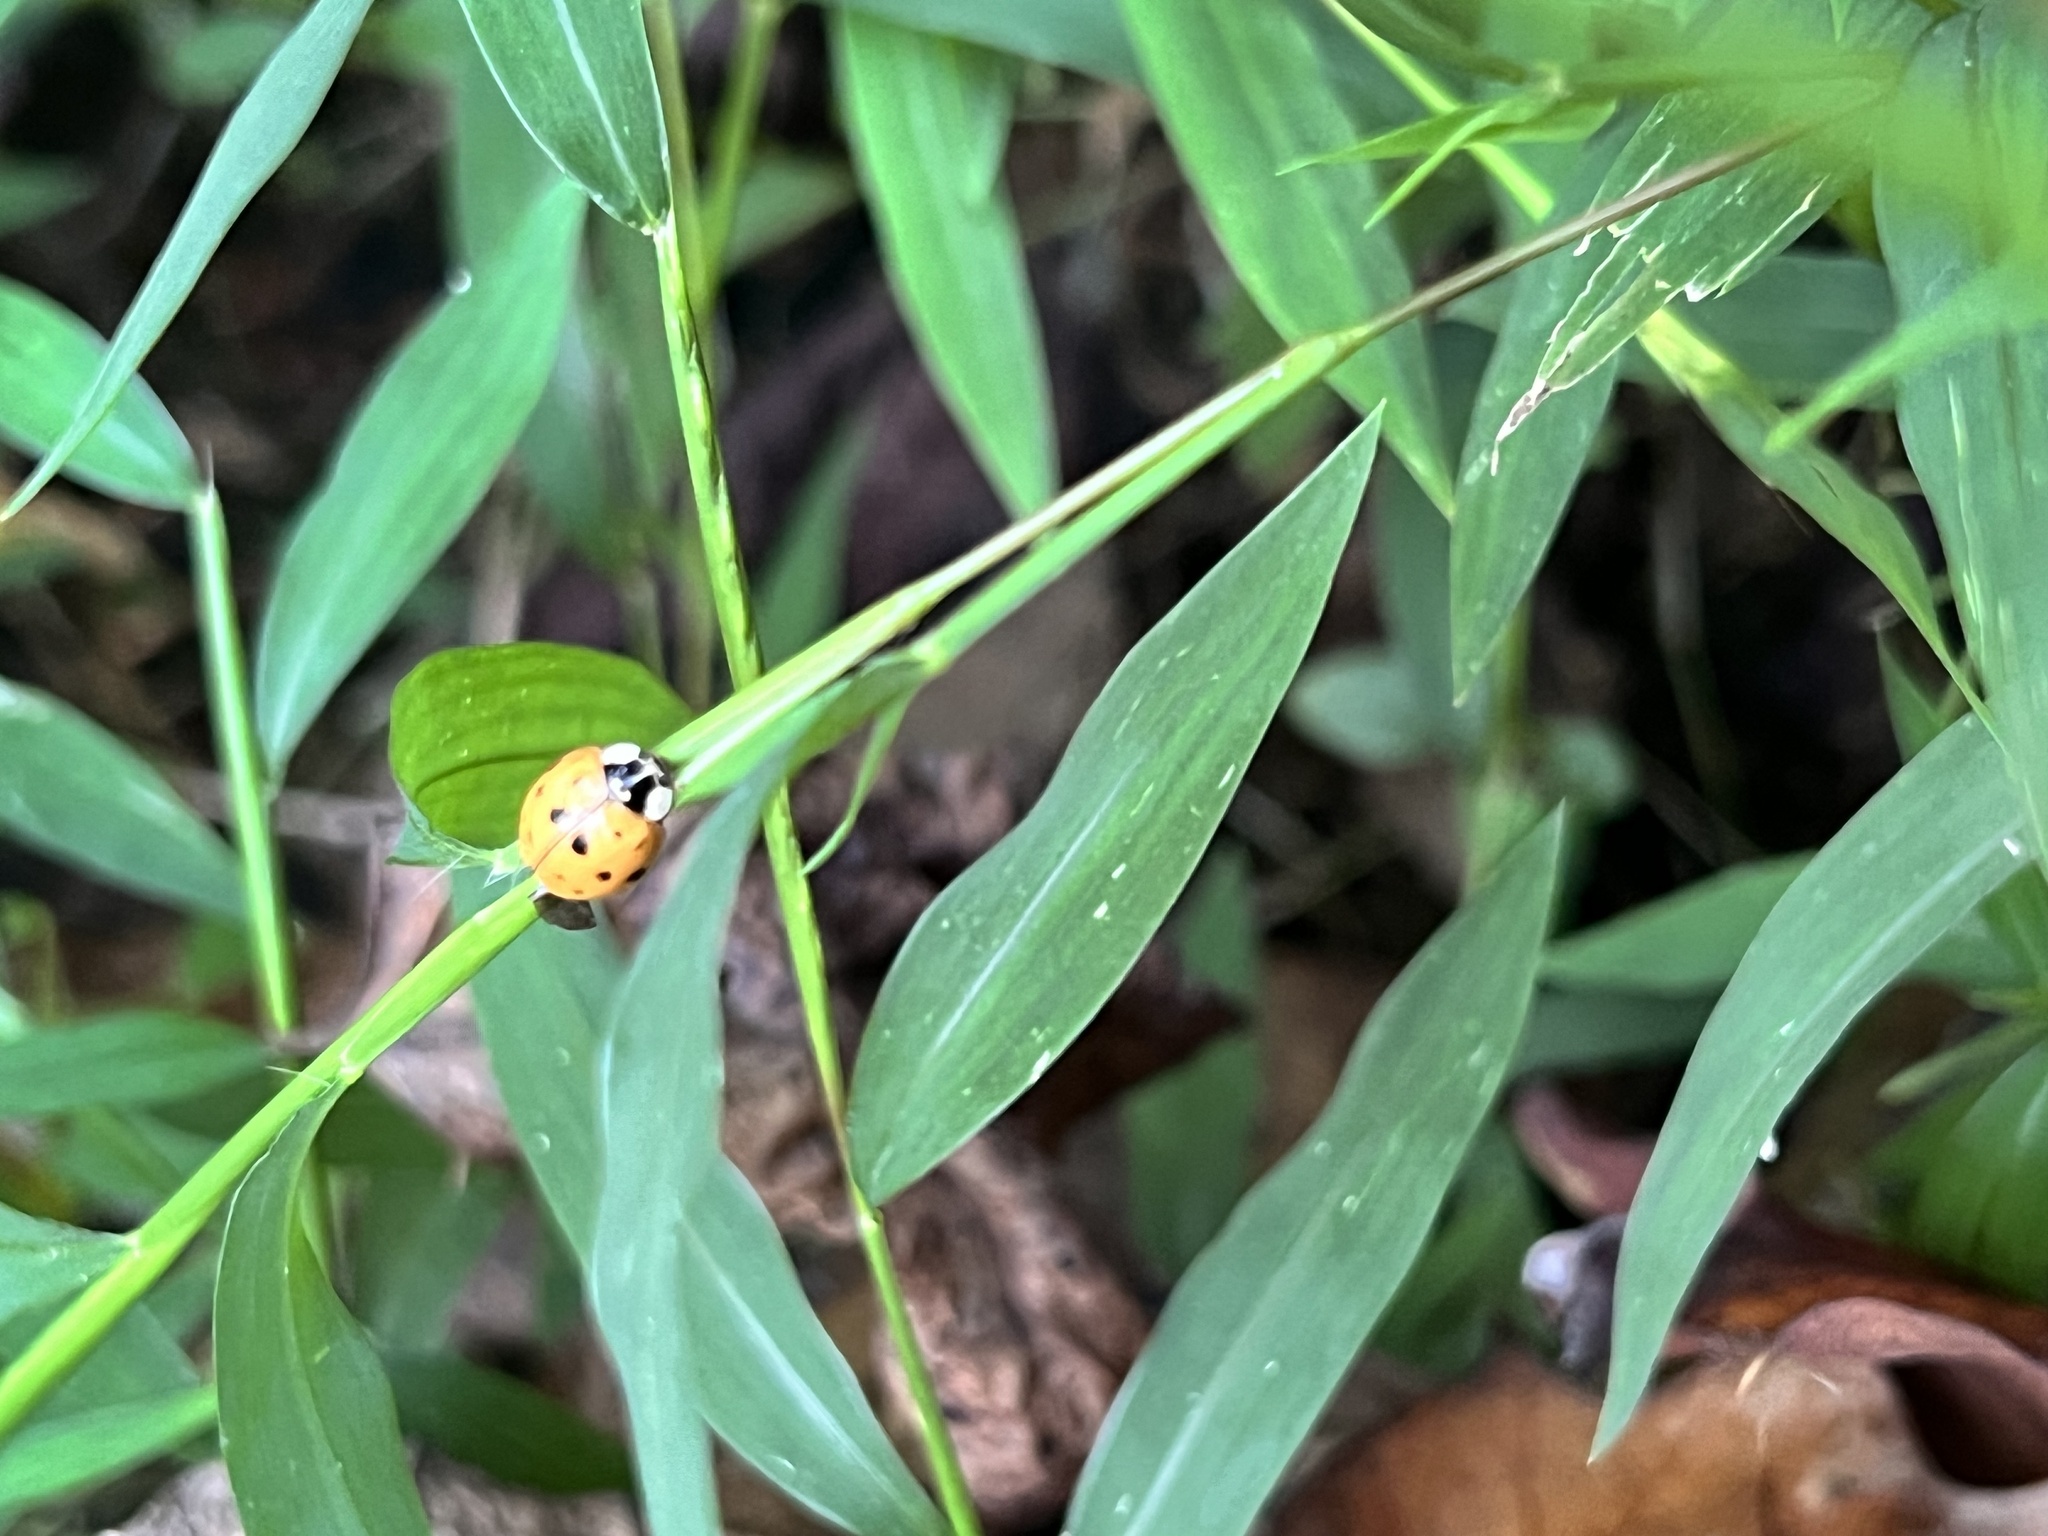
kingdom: Animalia
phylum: Arthropoda
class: Insecta
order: Coleoptera
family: Coccinellidae
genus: Harmonia
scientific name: Harmonia axyridis
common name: Harlequin ladybird
